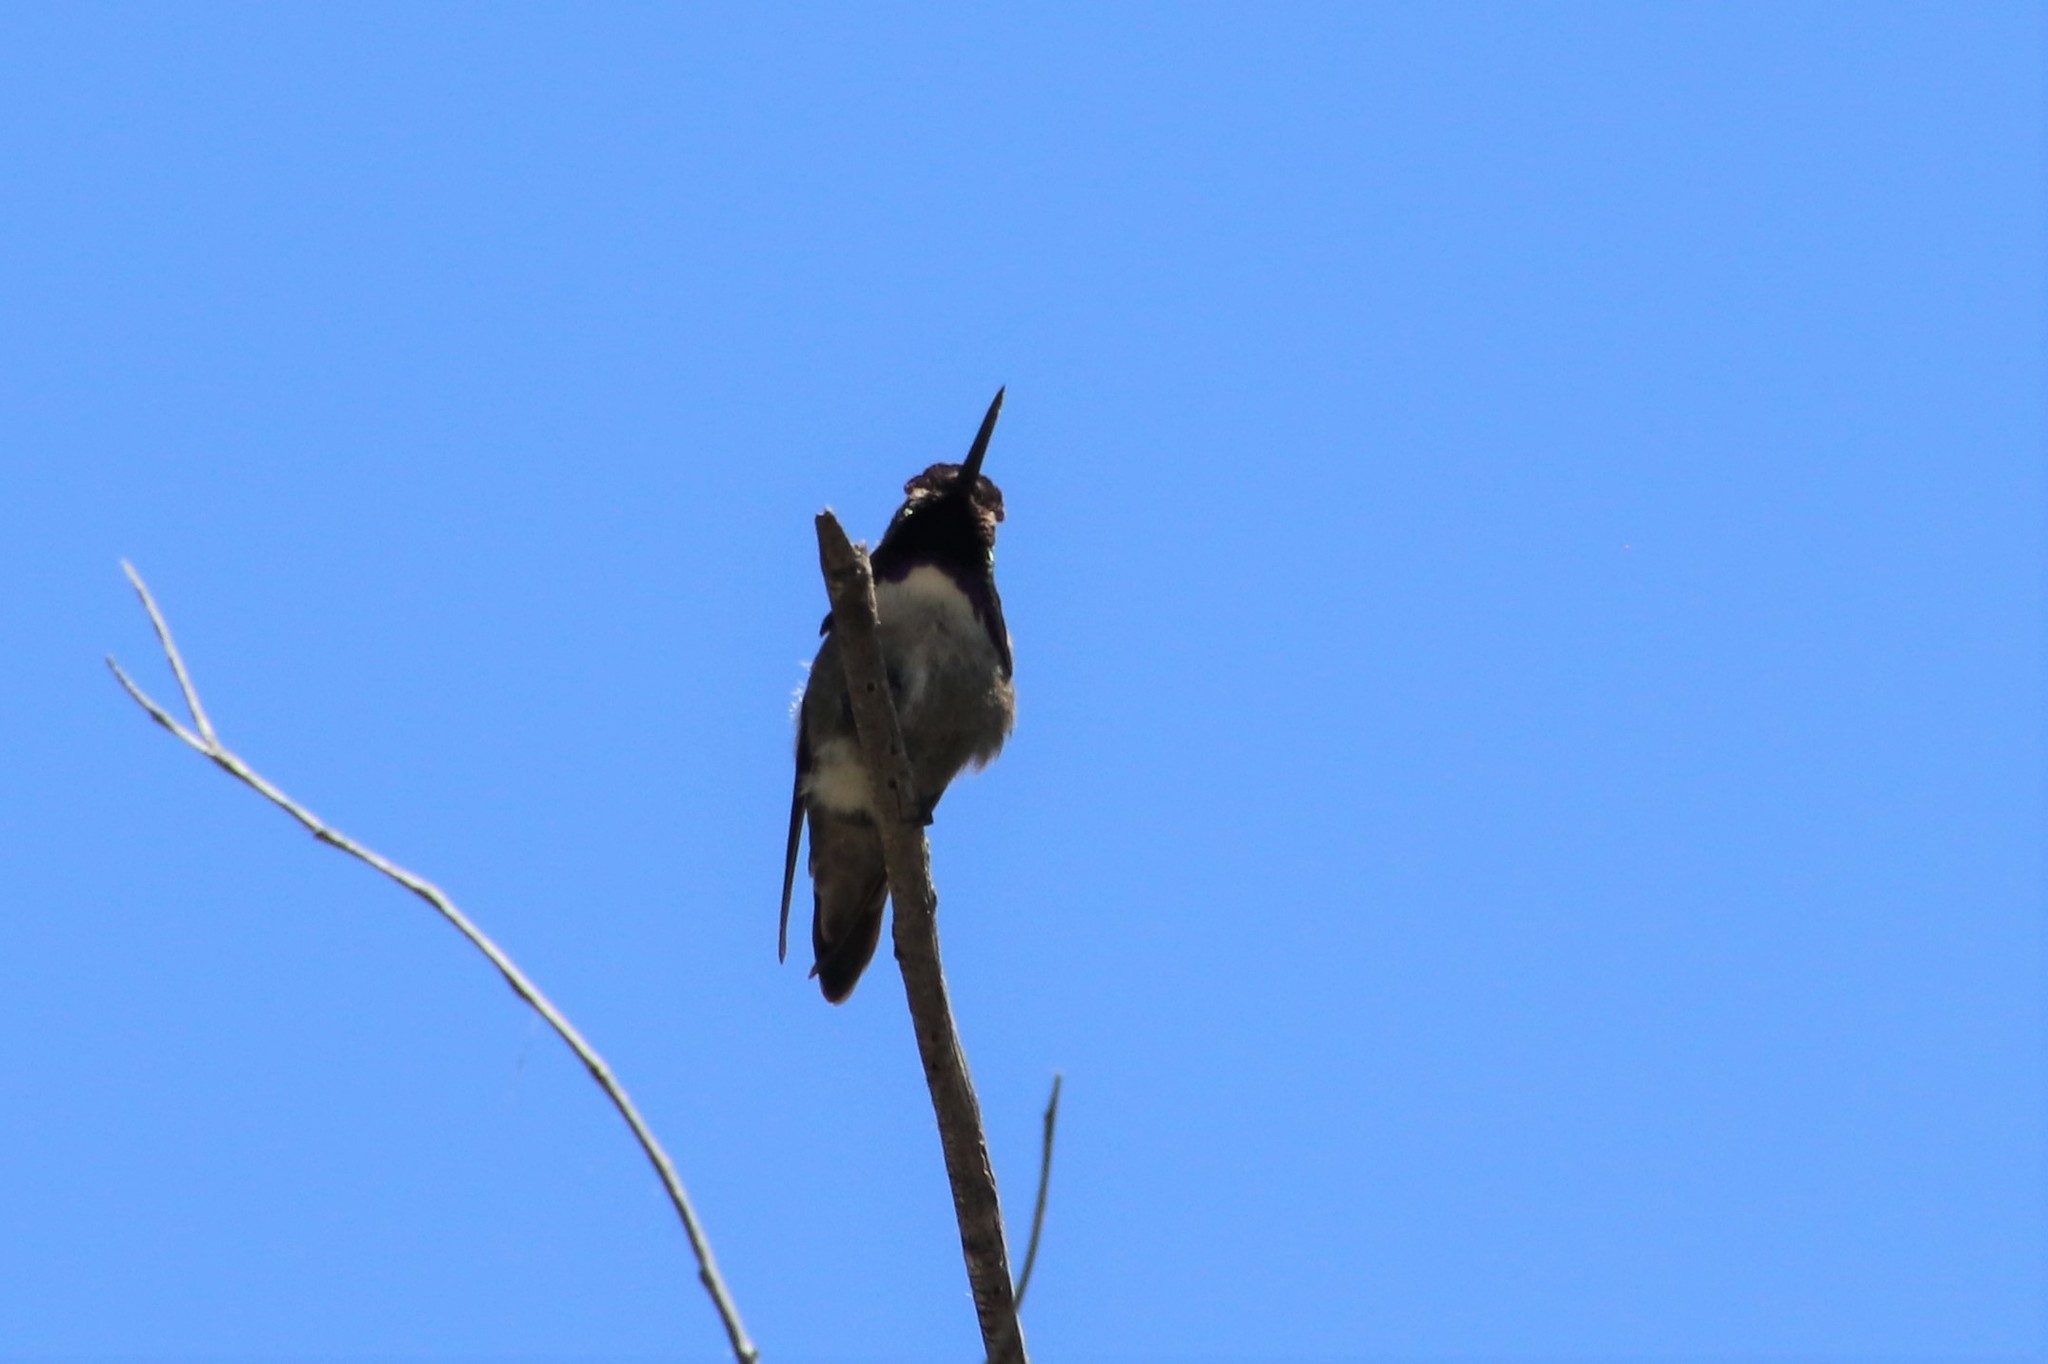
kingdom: Animalia
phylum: Chordata
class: Aves
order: Apodiformes
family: Trochilidae
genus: Calypte
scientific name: Calypte costae
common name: Costa's hummingbird
